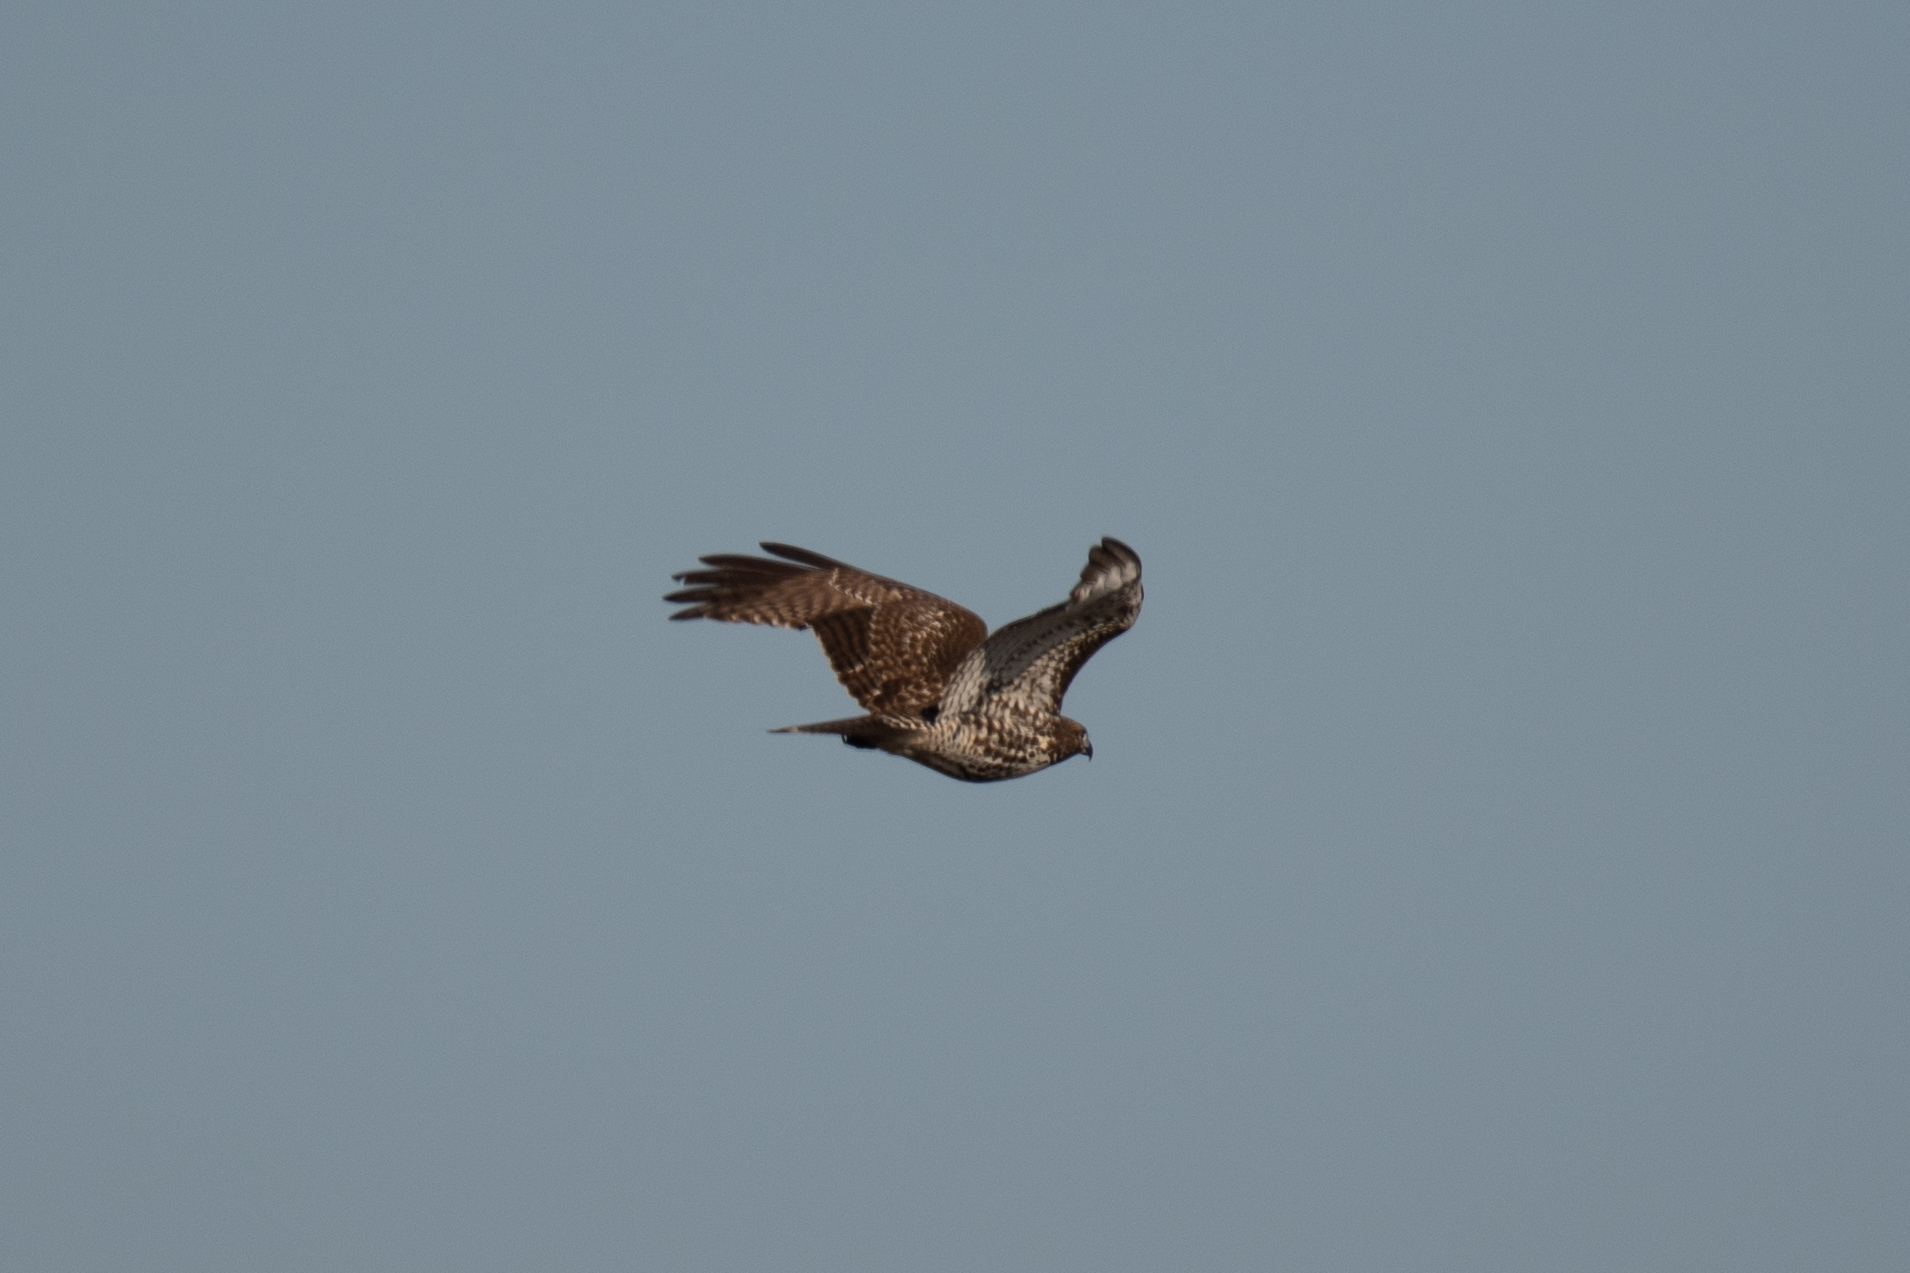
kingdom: Animalia
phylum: Chordata
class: Aves
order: Accipitriformes
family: Accipitridae
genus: Buteo
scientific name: Buteo jamaicensis
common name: Red-tailed hawk
